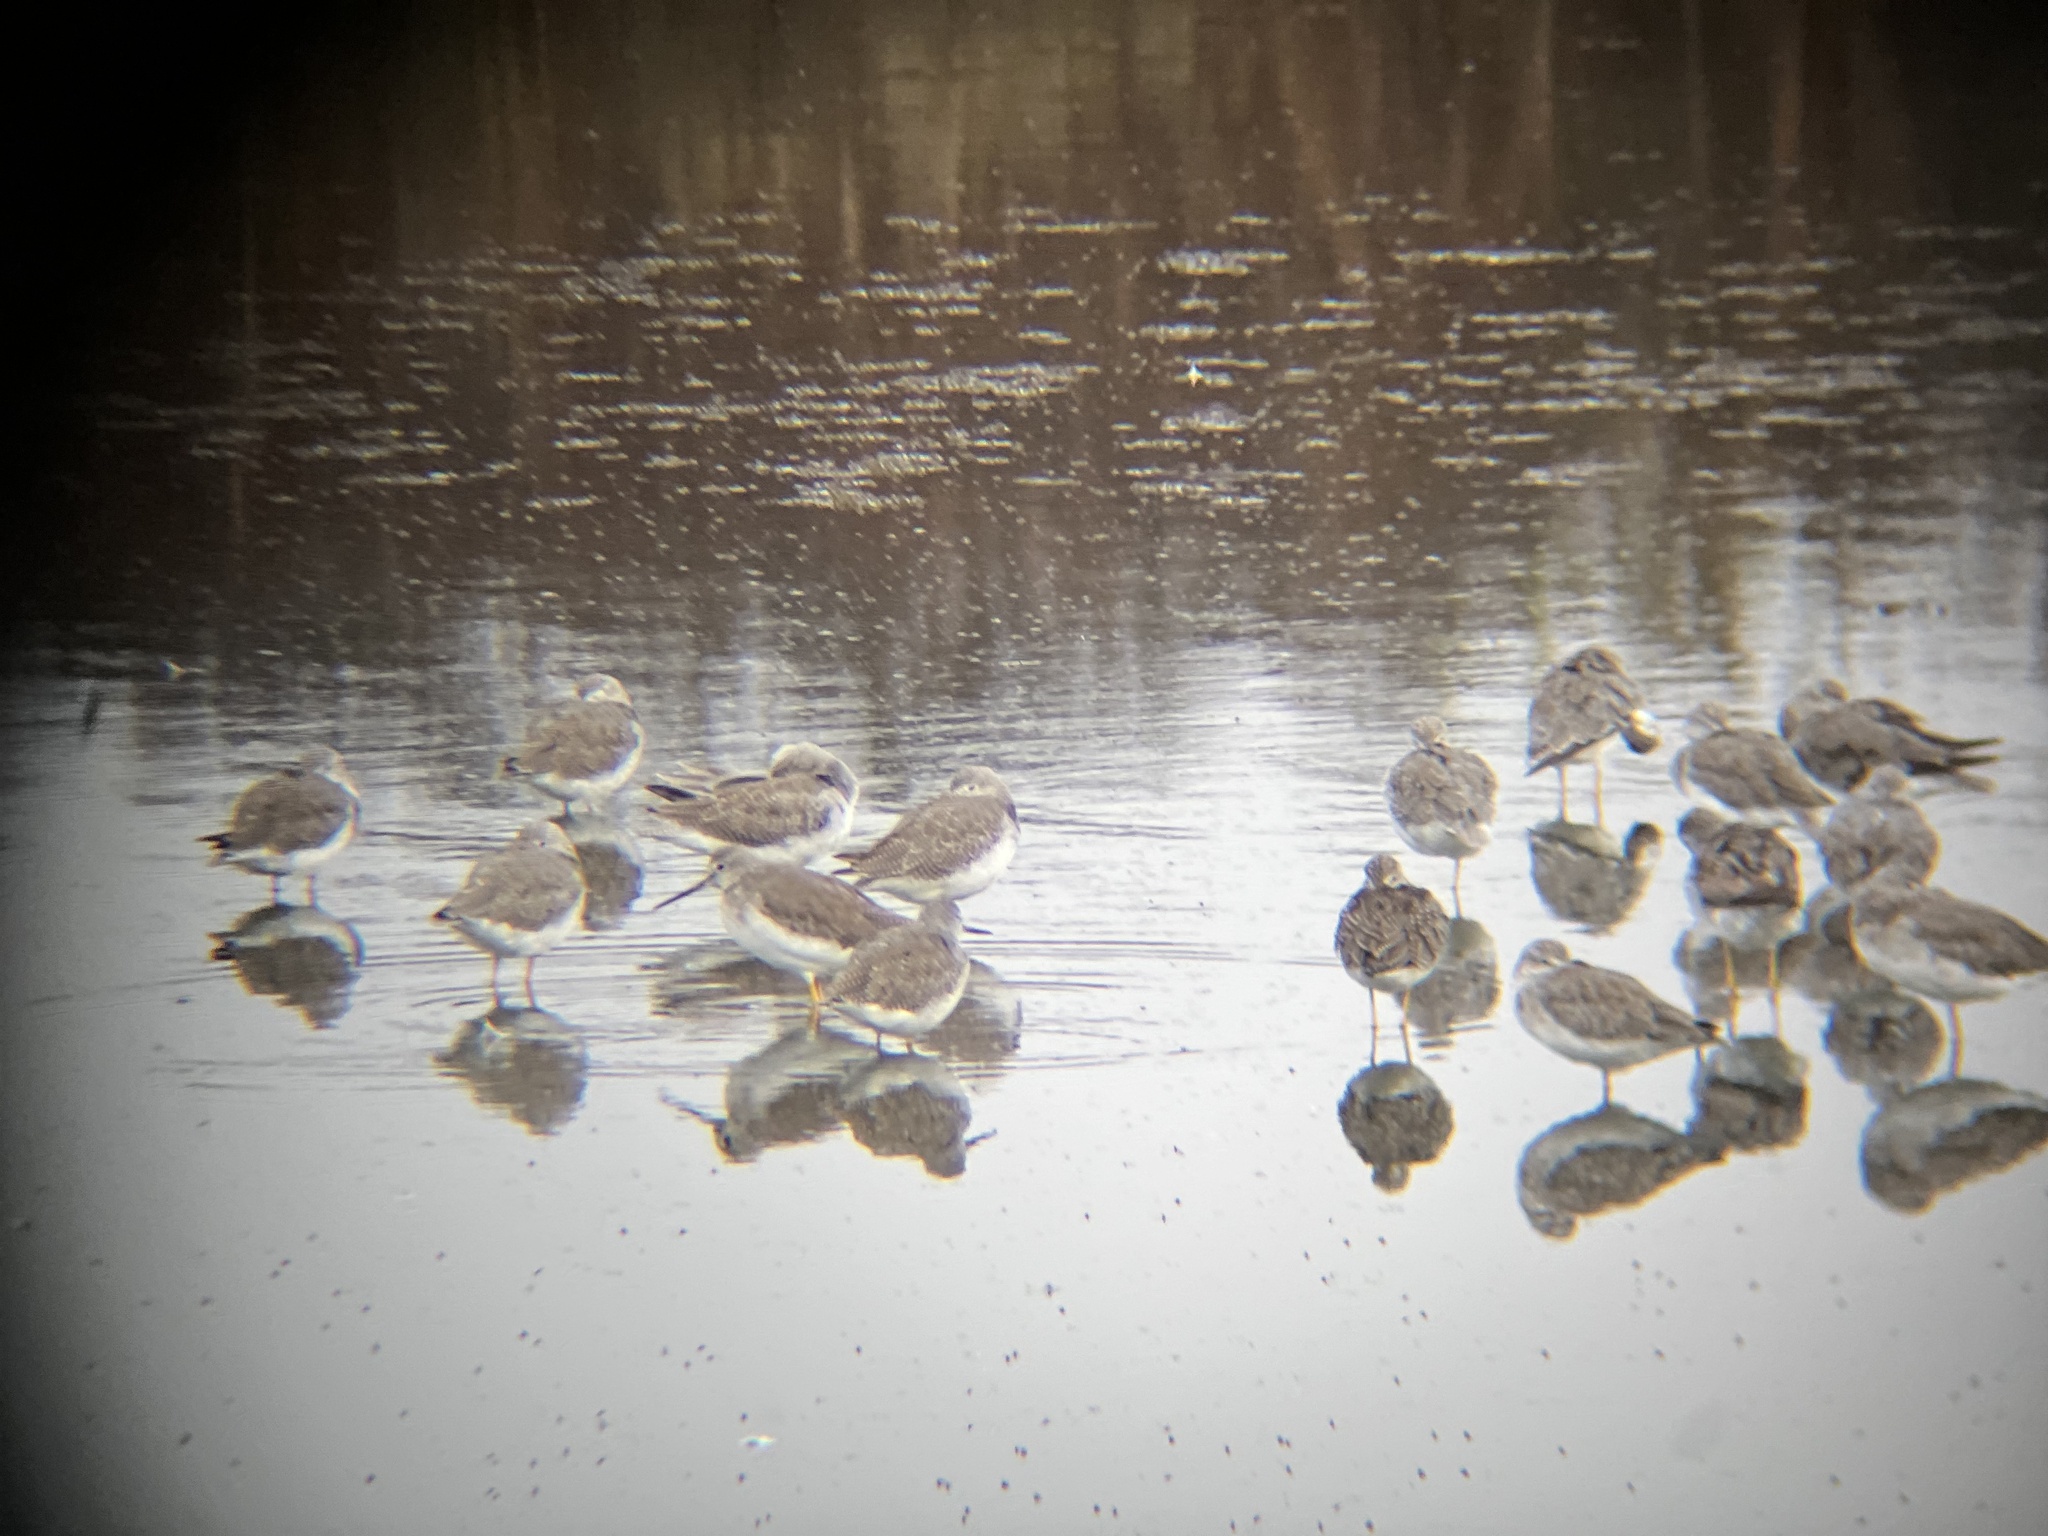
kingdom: Animalia
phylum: Chordata
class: Aves
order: Charadriiformes
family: Scolopacidae
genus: Tringa
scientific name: Tringa melanoleuca
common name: Greater yellowlegs
